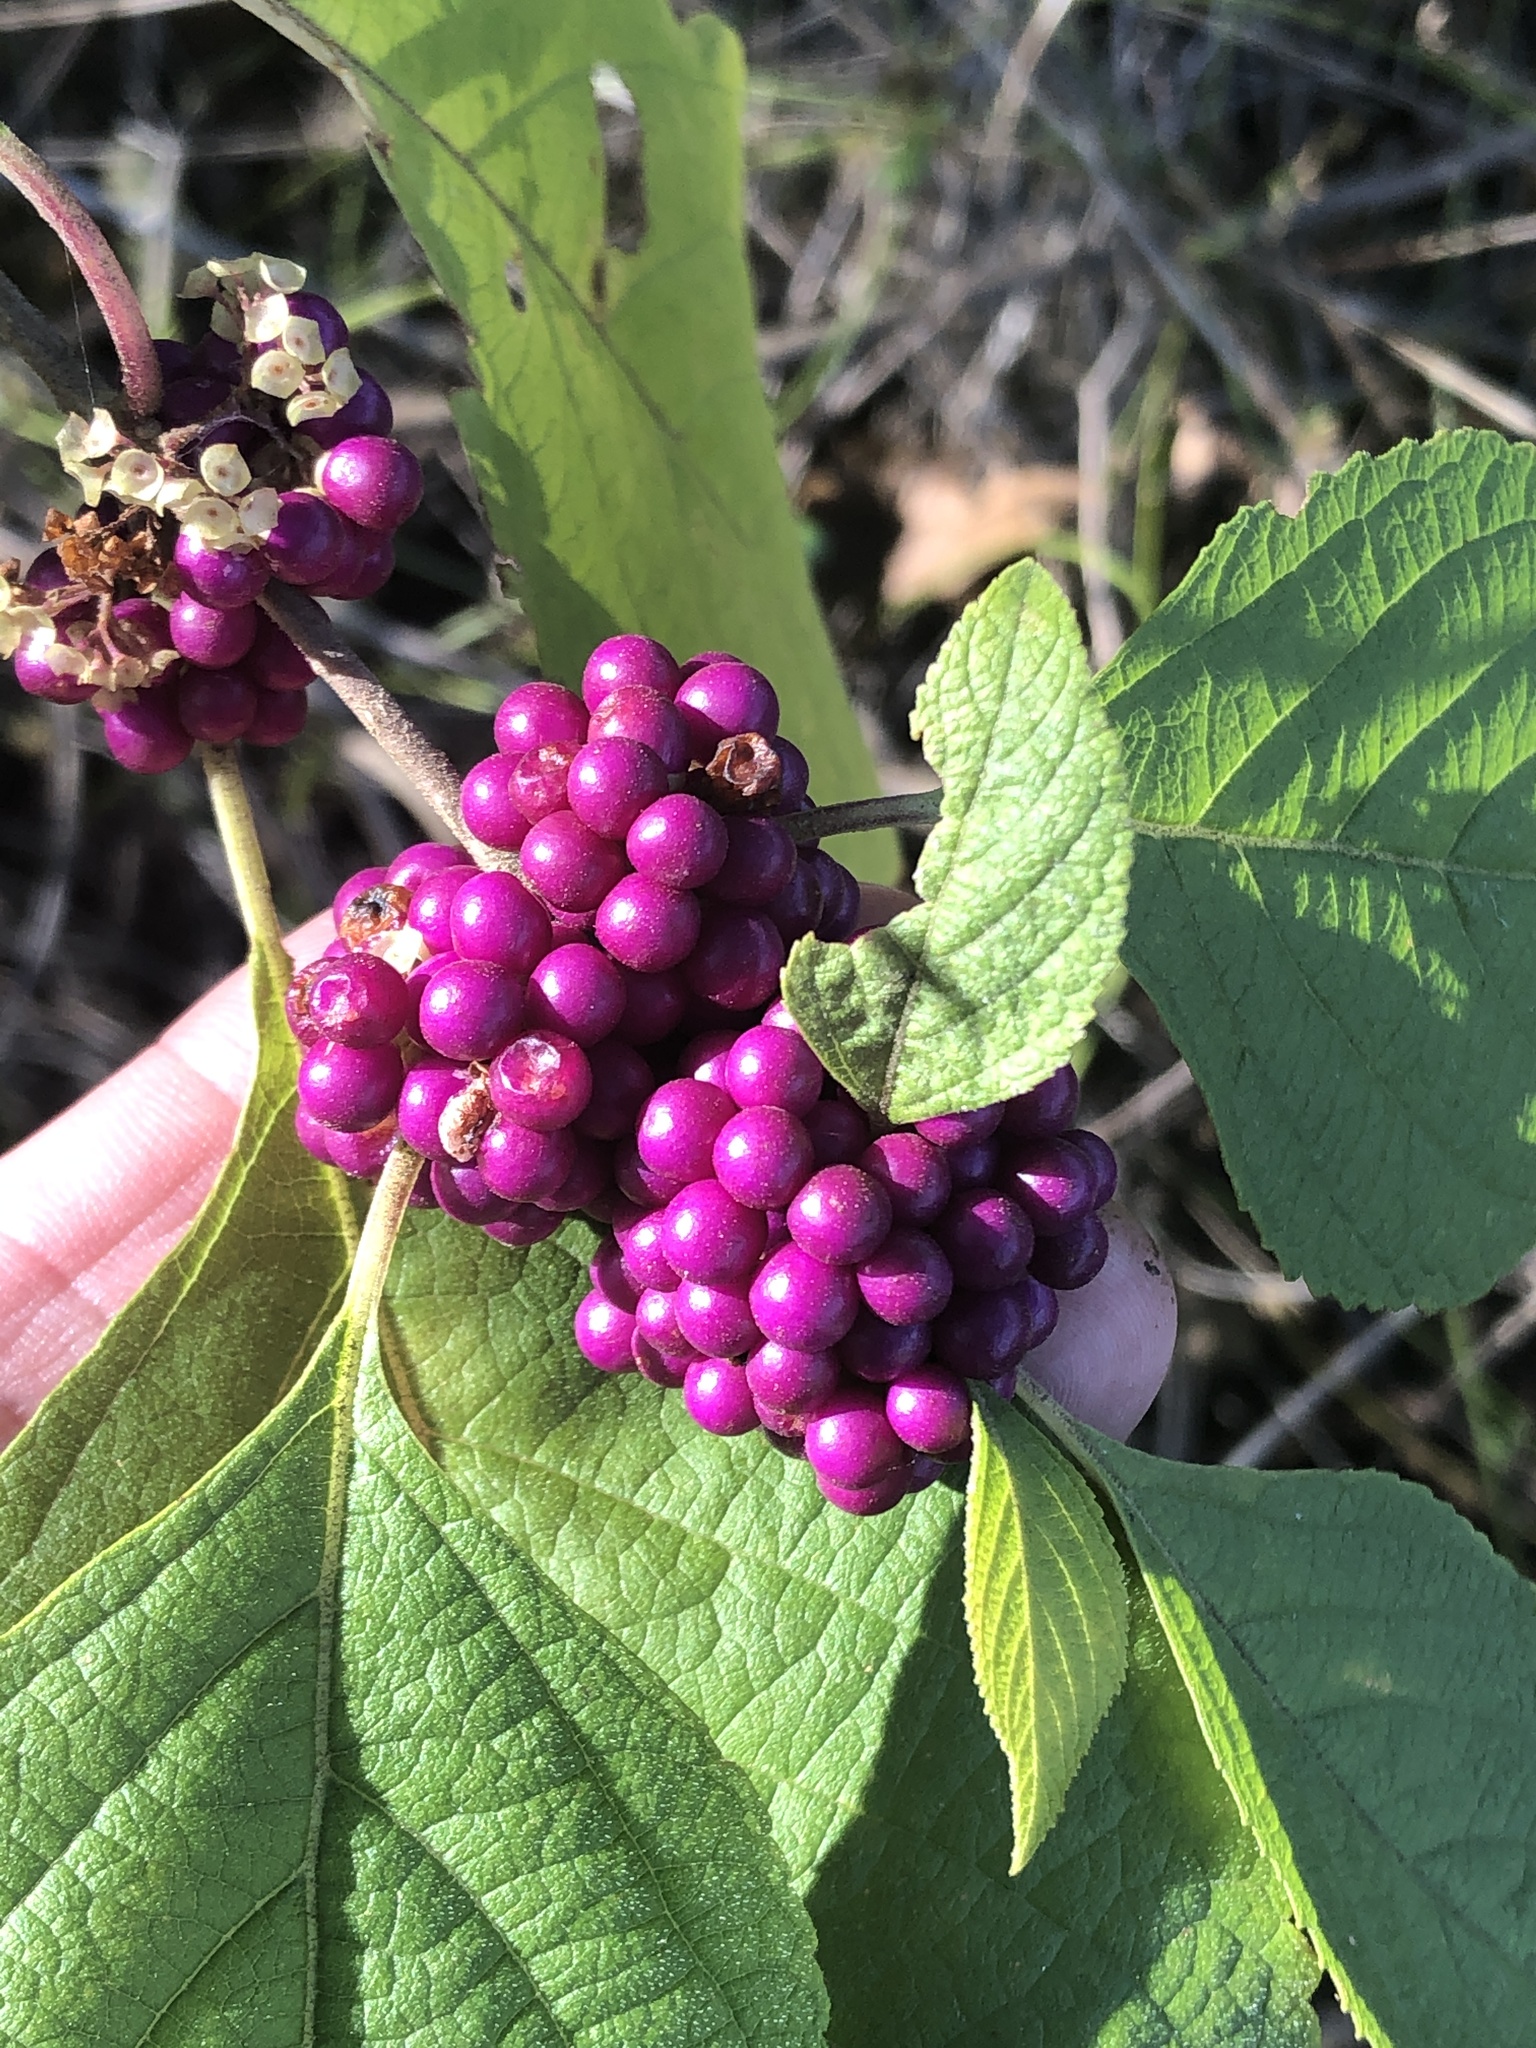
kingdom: Plantae
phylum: Tracheophyta
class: Magnoliopsida
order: Lamiales
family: Lamiaceae
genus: Callicarpa
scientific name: Callicarpa americana
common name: American beautyberry
